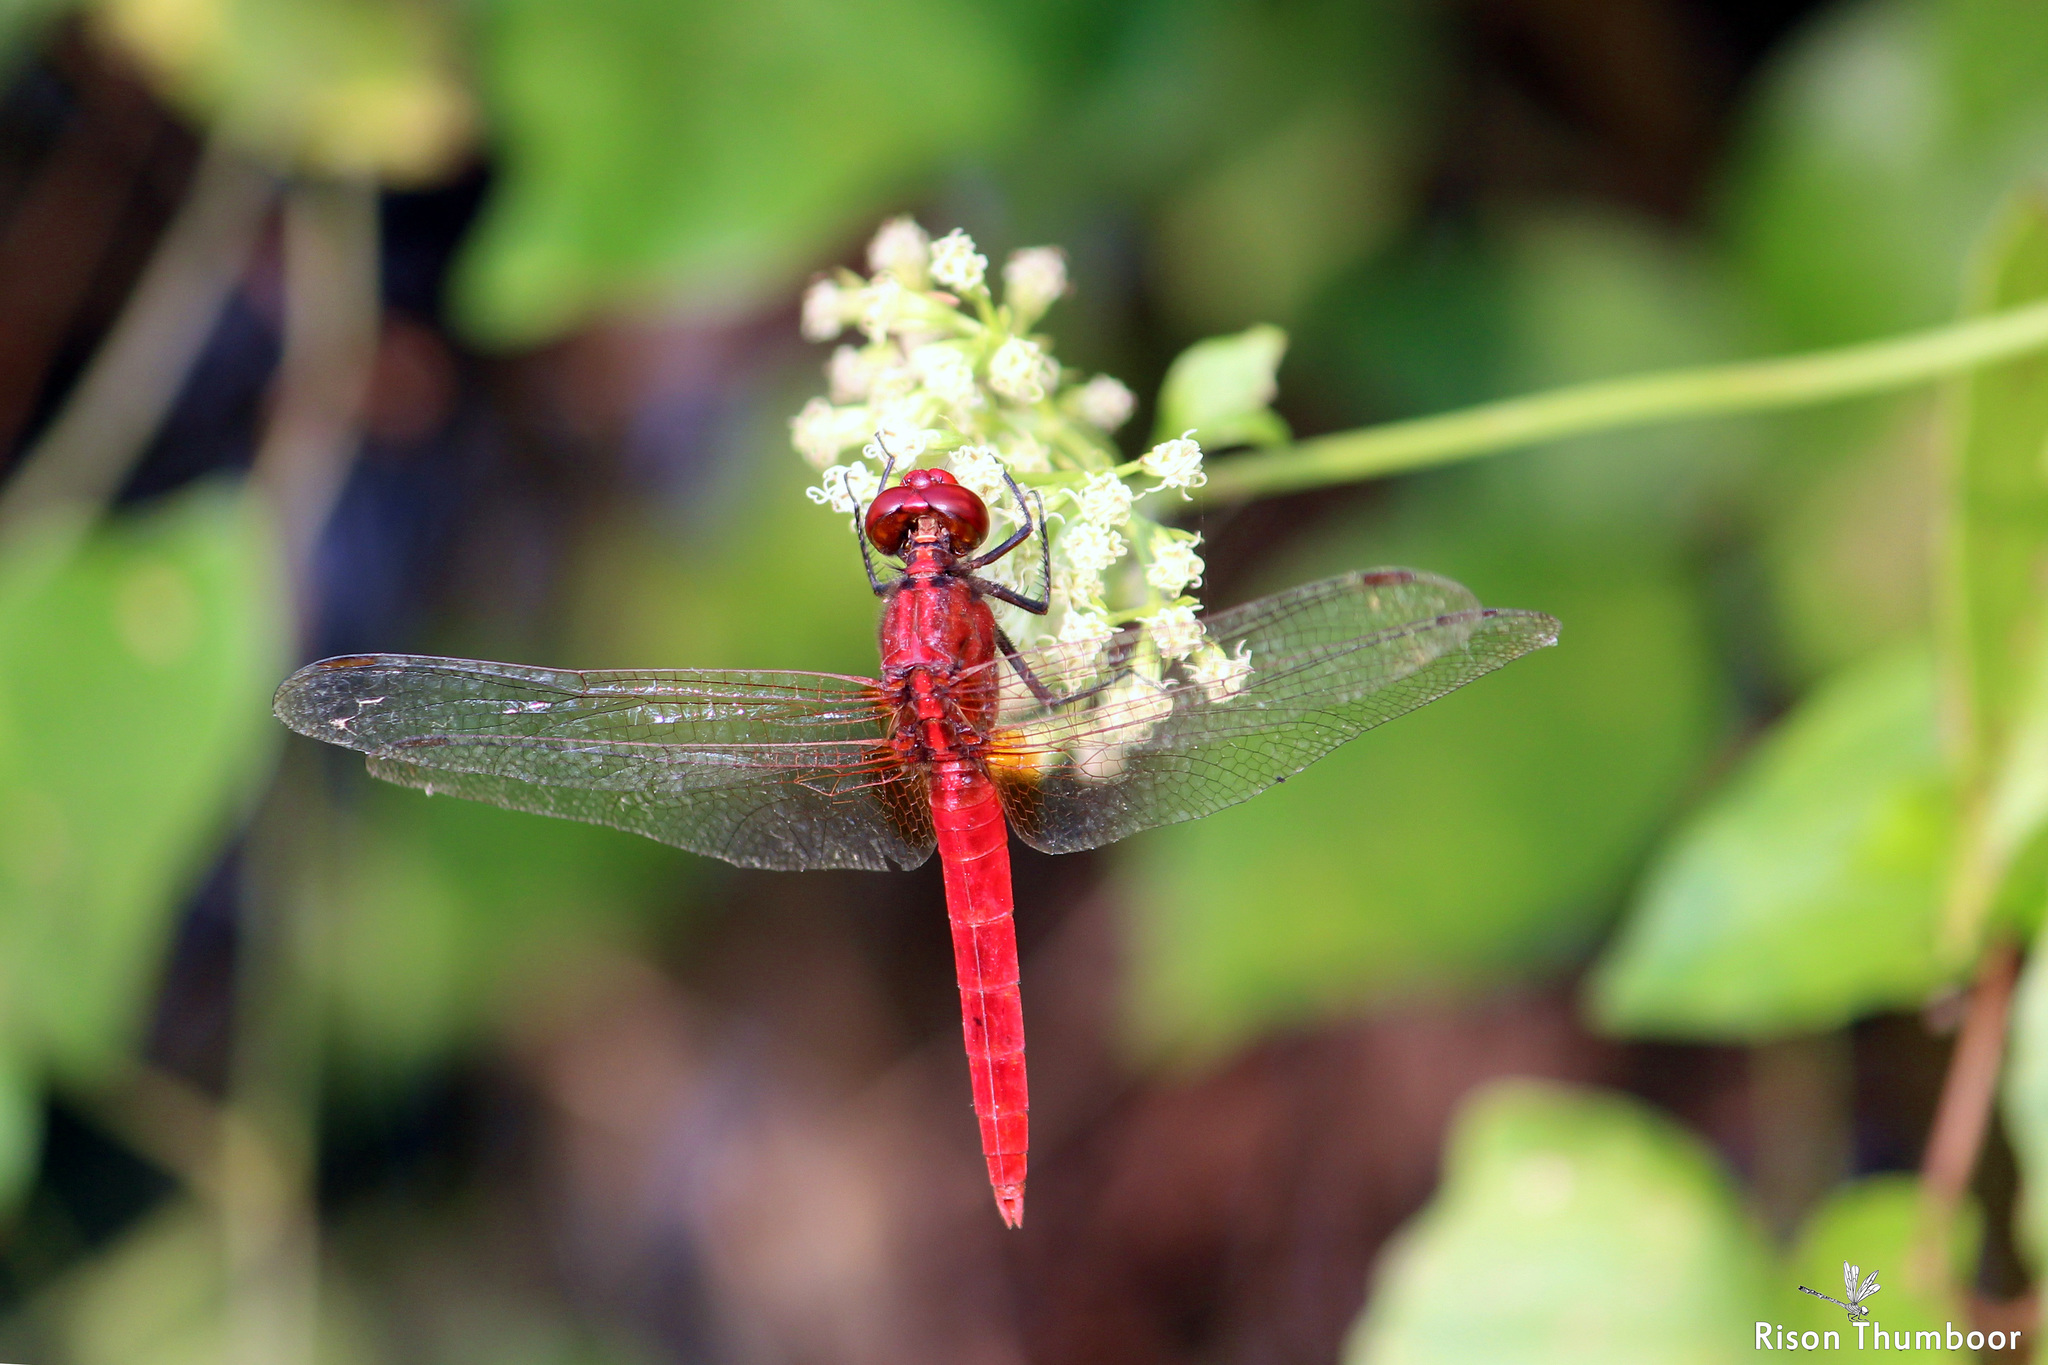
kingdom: Animalia
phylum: Arthropoda
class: Insecta
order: Odonata
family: Libellulidae
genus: Rhodothemis
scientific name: Rhodothemis rufa
